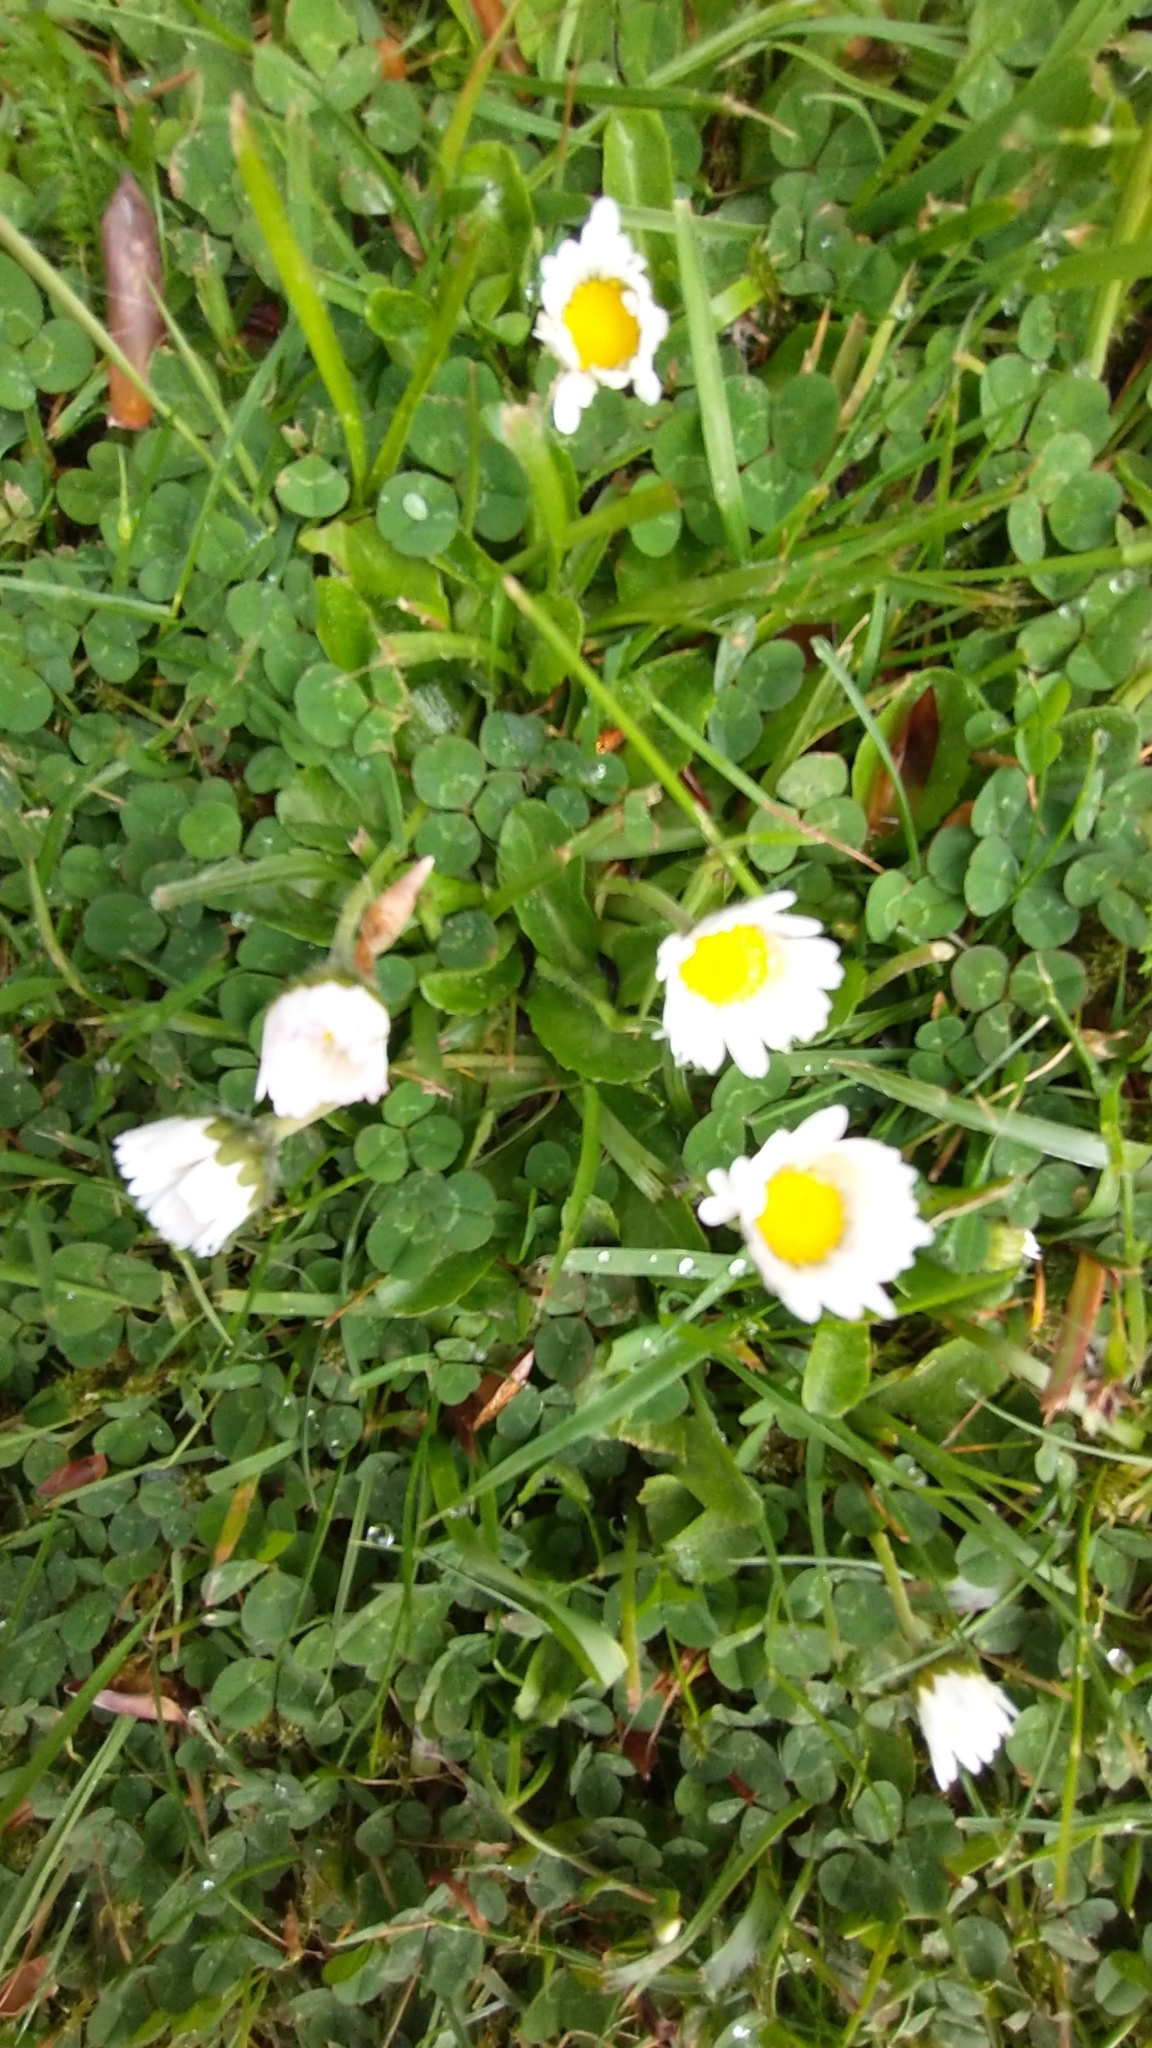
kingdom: Plantae
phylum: Tracheophyta
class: Magnoliopsida
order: Asterales
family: Asteraceae
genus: Bellis
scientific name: Bellis perennis
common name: Lawndaisy
